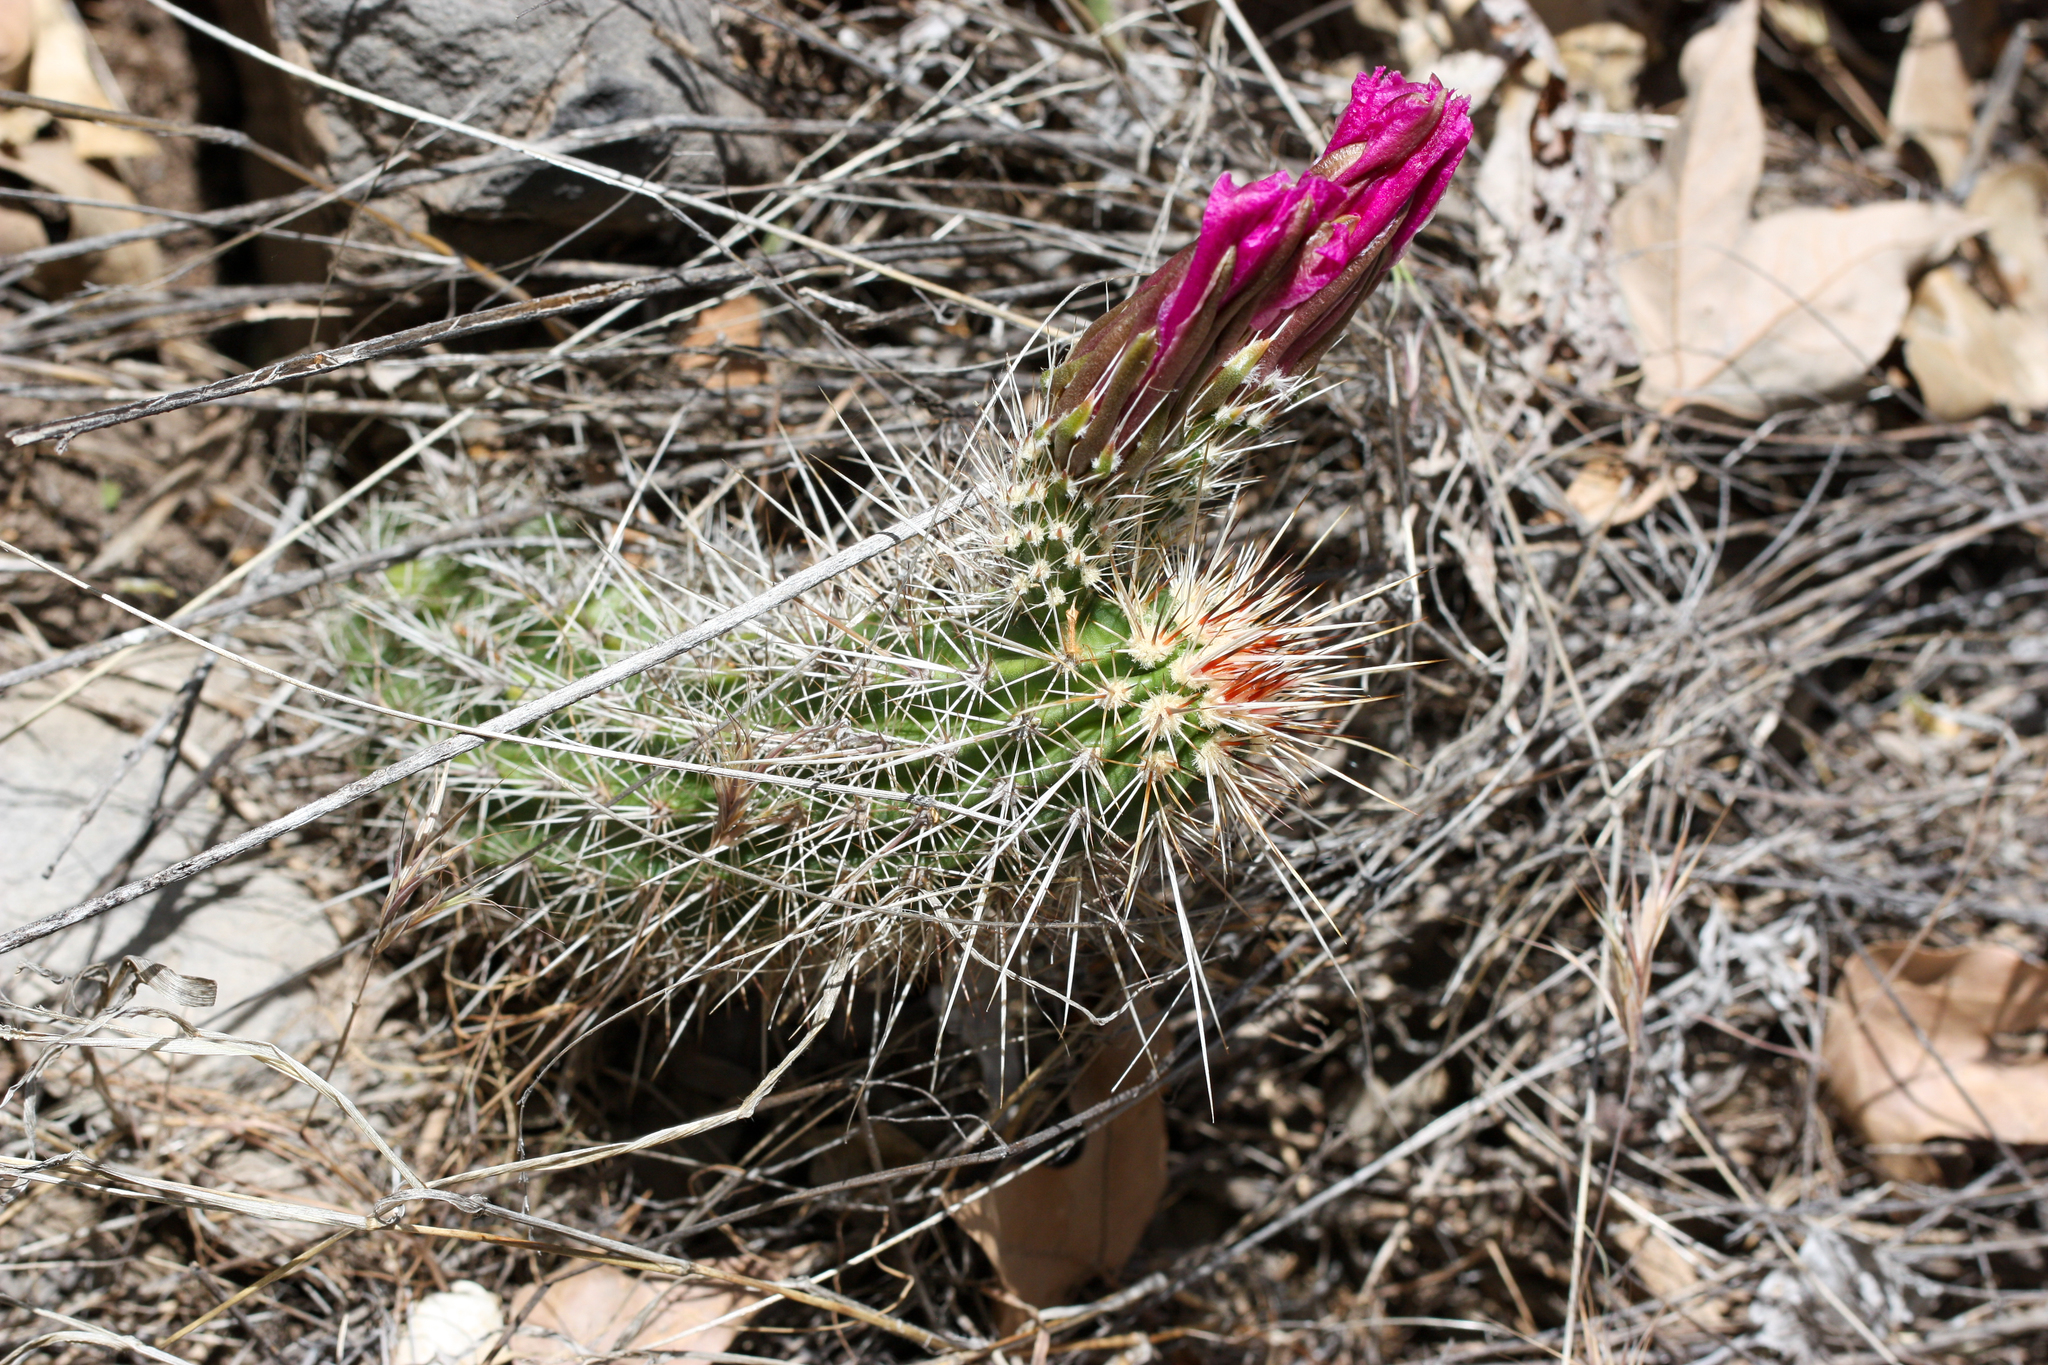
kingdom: Plantae
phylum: Tracheophyta
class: Magnoliopsida
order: Caryophyllales
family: Cactaceae
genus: Echinocereus
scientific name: Echinocereus engelmannii
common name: Engelmann's hedgehog cactus
